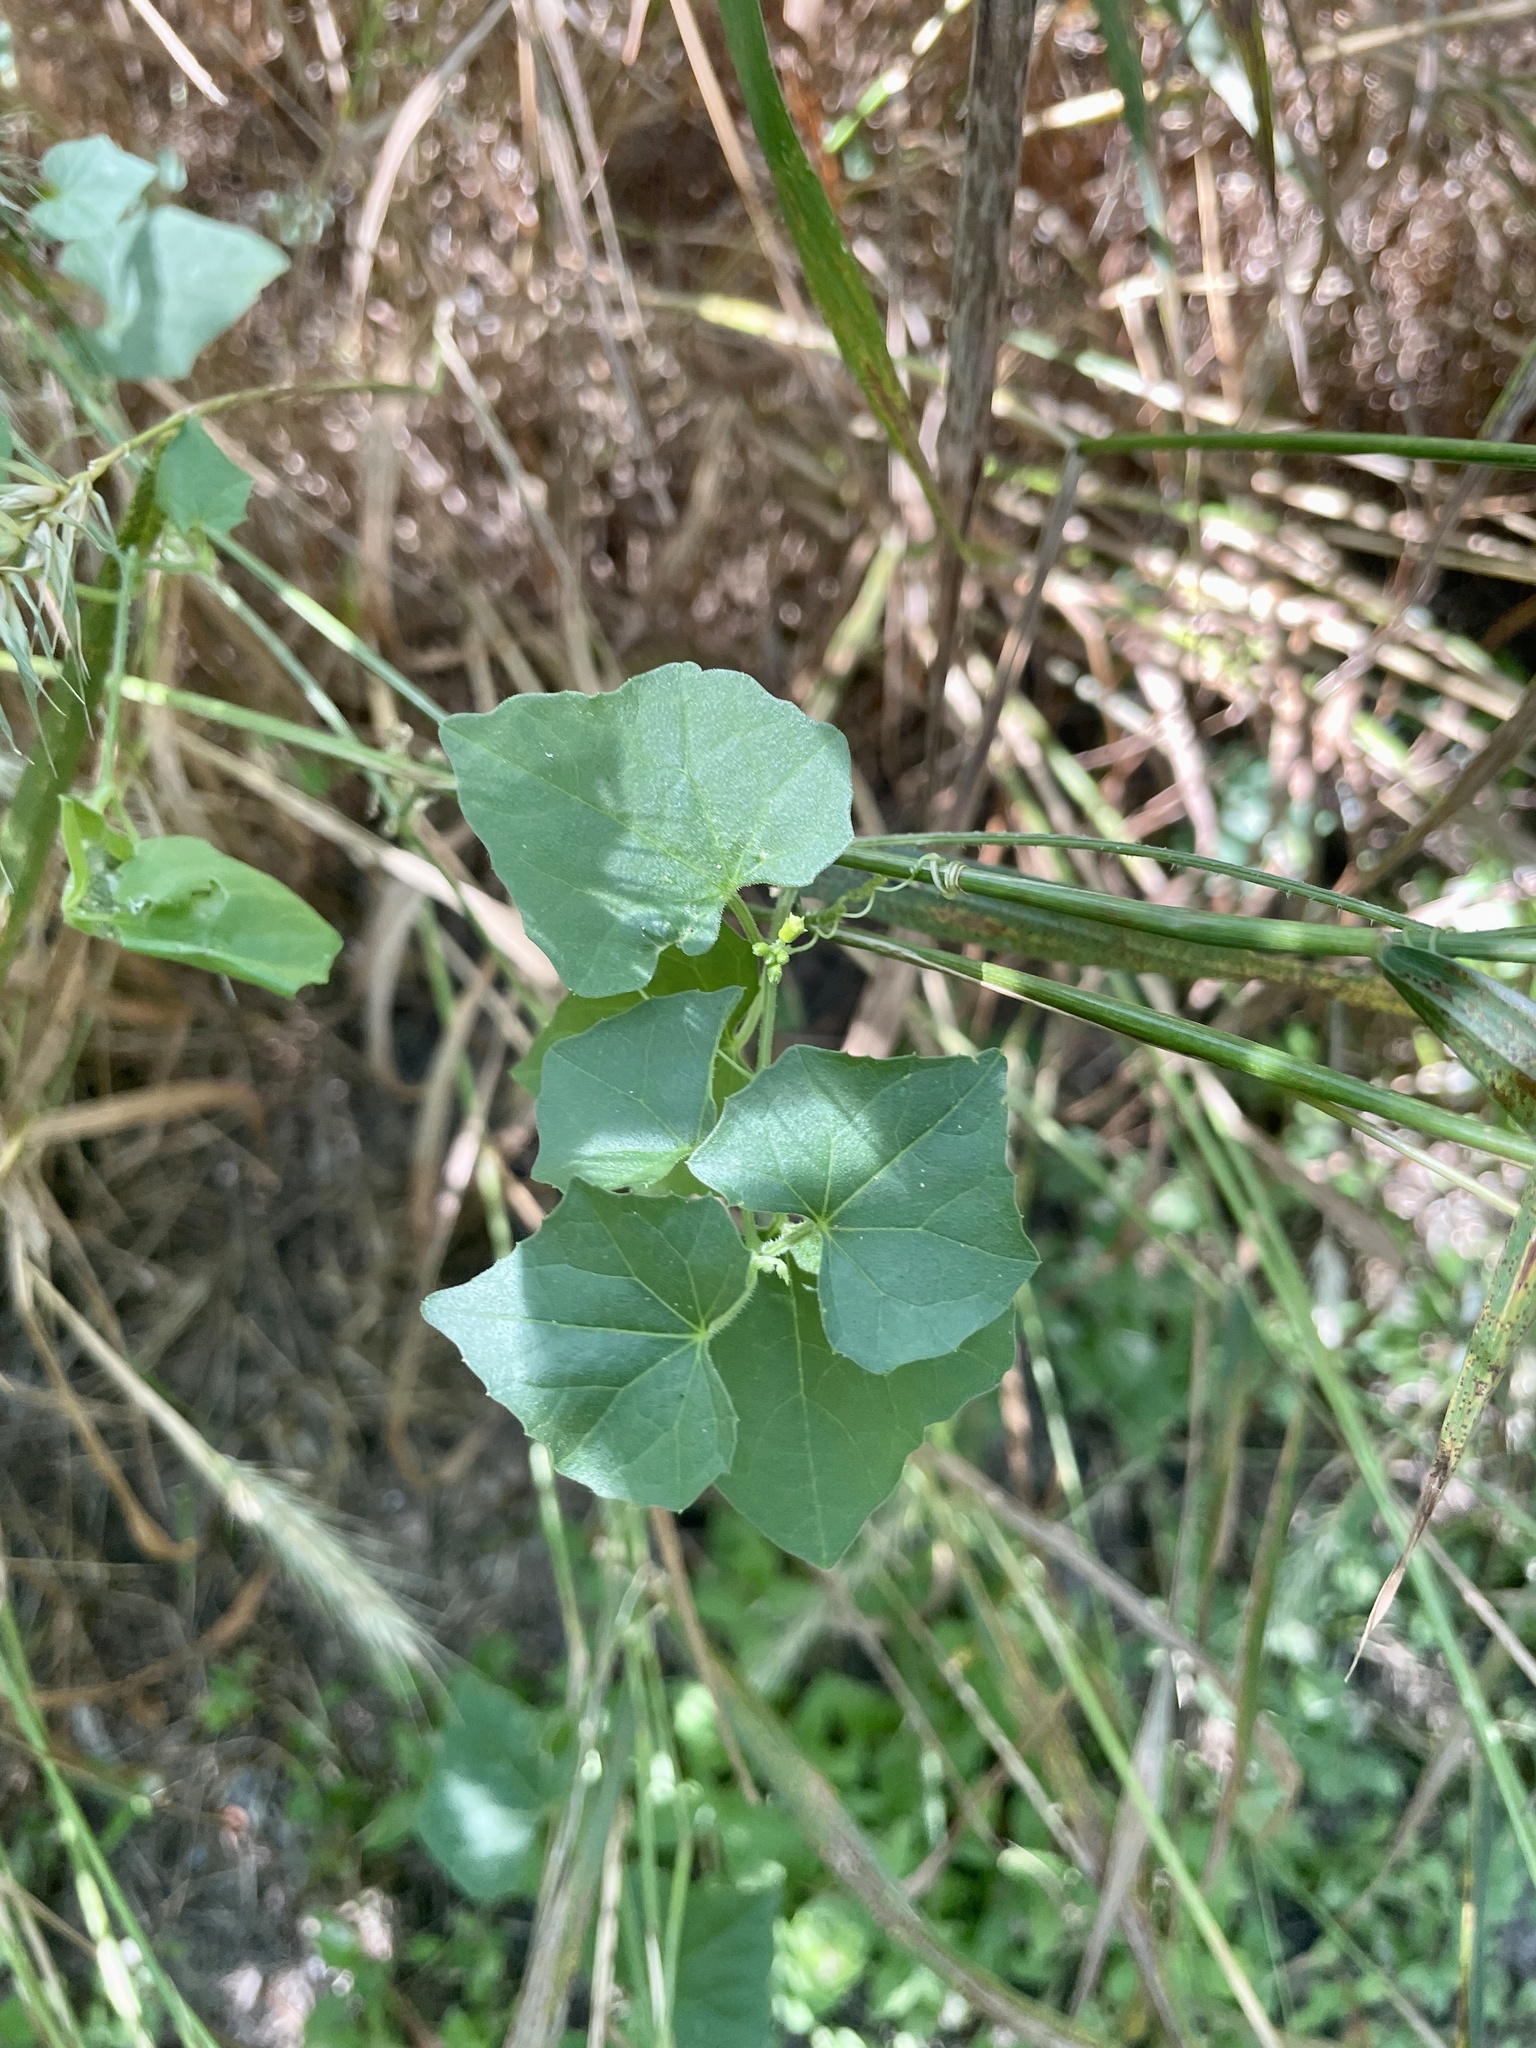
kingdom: Plantae
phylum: Tracheophyta
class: Magnoliopsida
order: Cucurbitales
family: Cucurbitaceae
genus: Melothria
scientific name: Melothria pendula
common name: Creeping-cucumber
